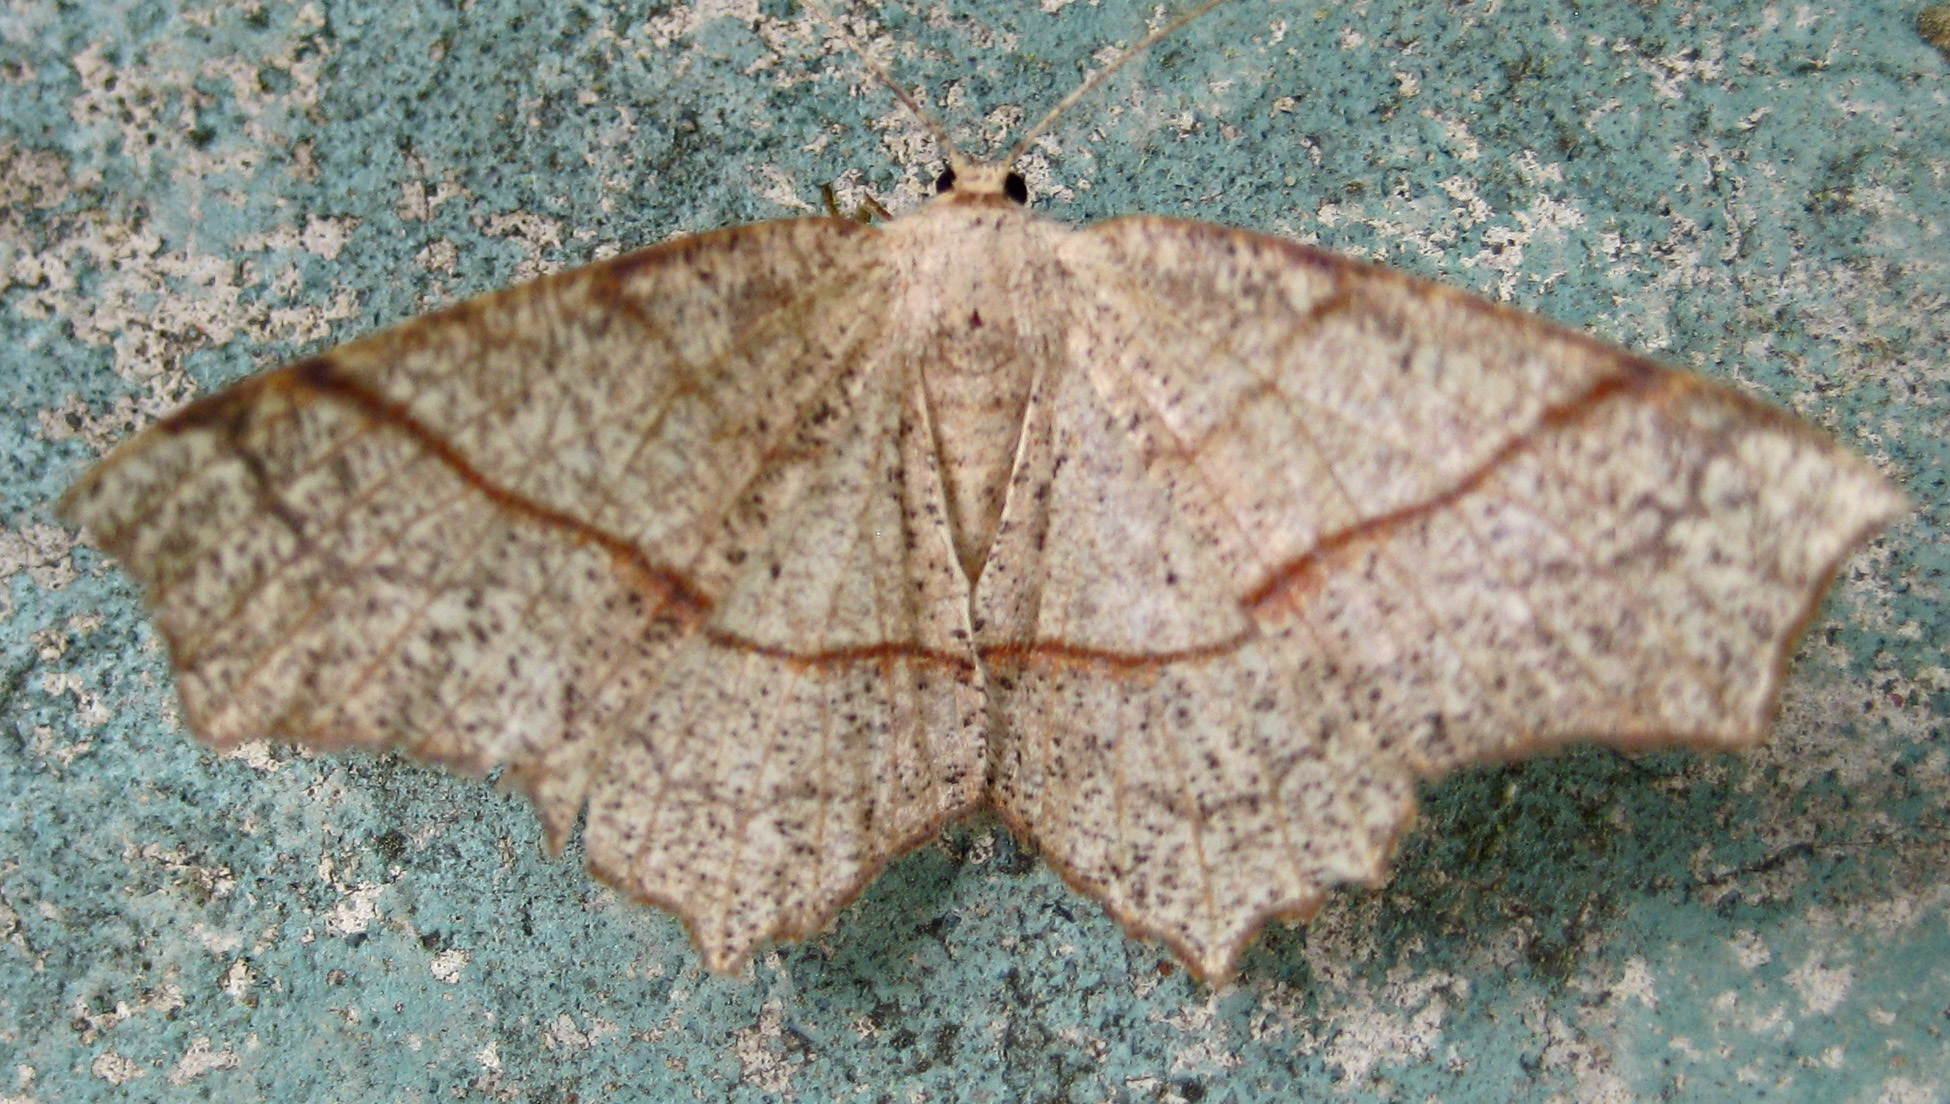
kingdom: Animalia
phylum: Arthropoda
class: Insecta
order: Lepidoptera
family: Geometridae
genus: Besma
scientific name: Besma quercivoraria
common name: Oak besma
